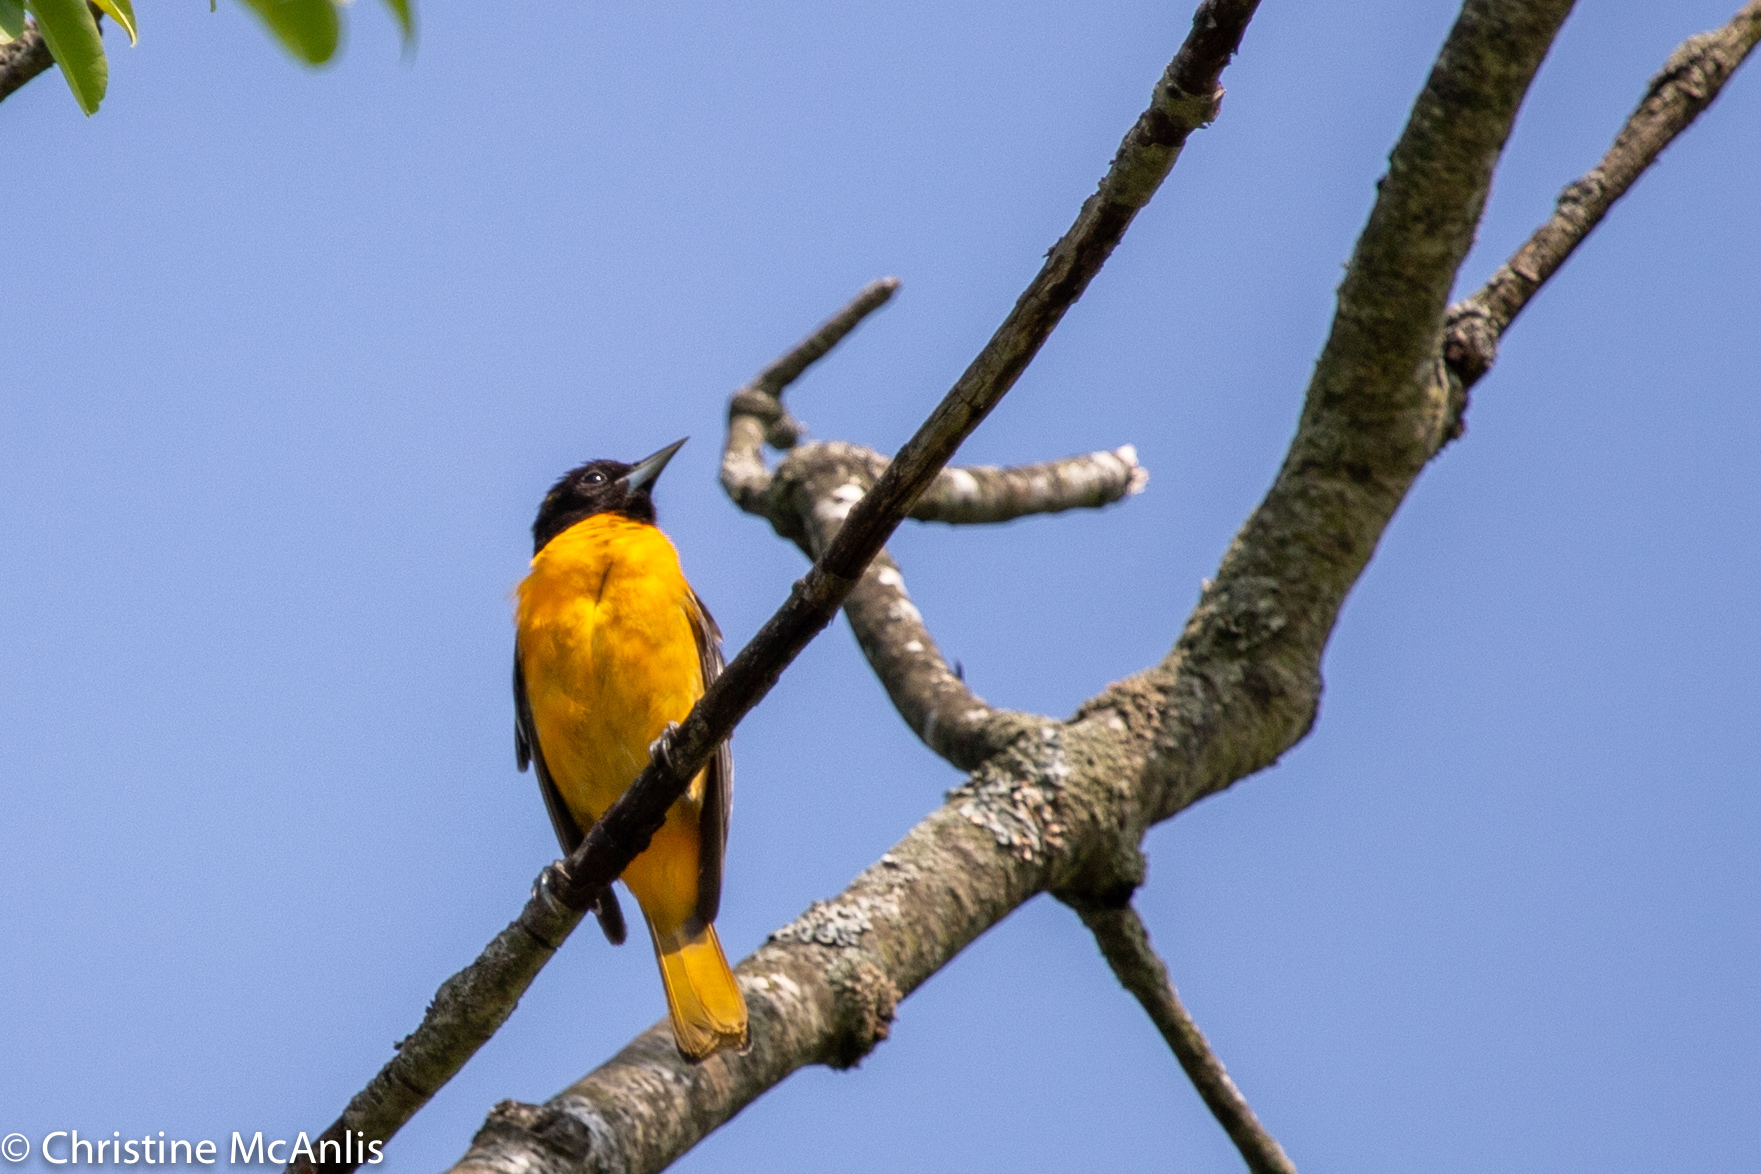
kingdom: Animalia
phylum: Chordata
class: Aves
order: Passeriformes
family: Icteridae
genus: Icterus
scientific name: Icterus galbula
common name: Baltimore oriole
